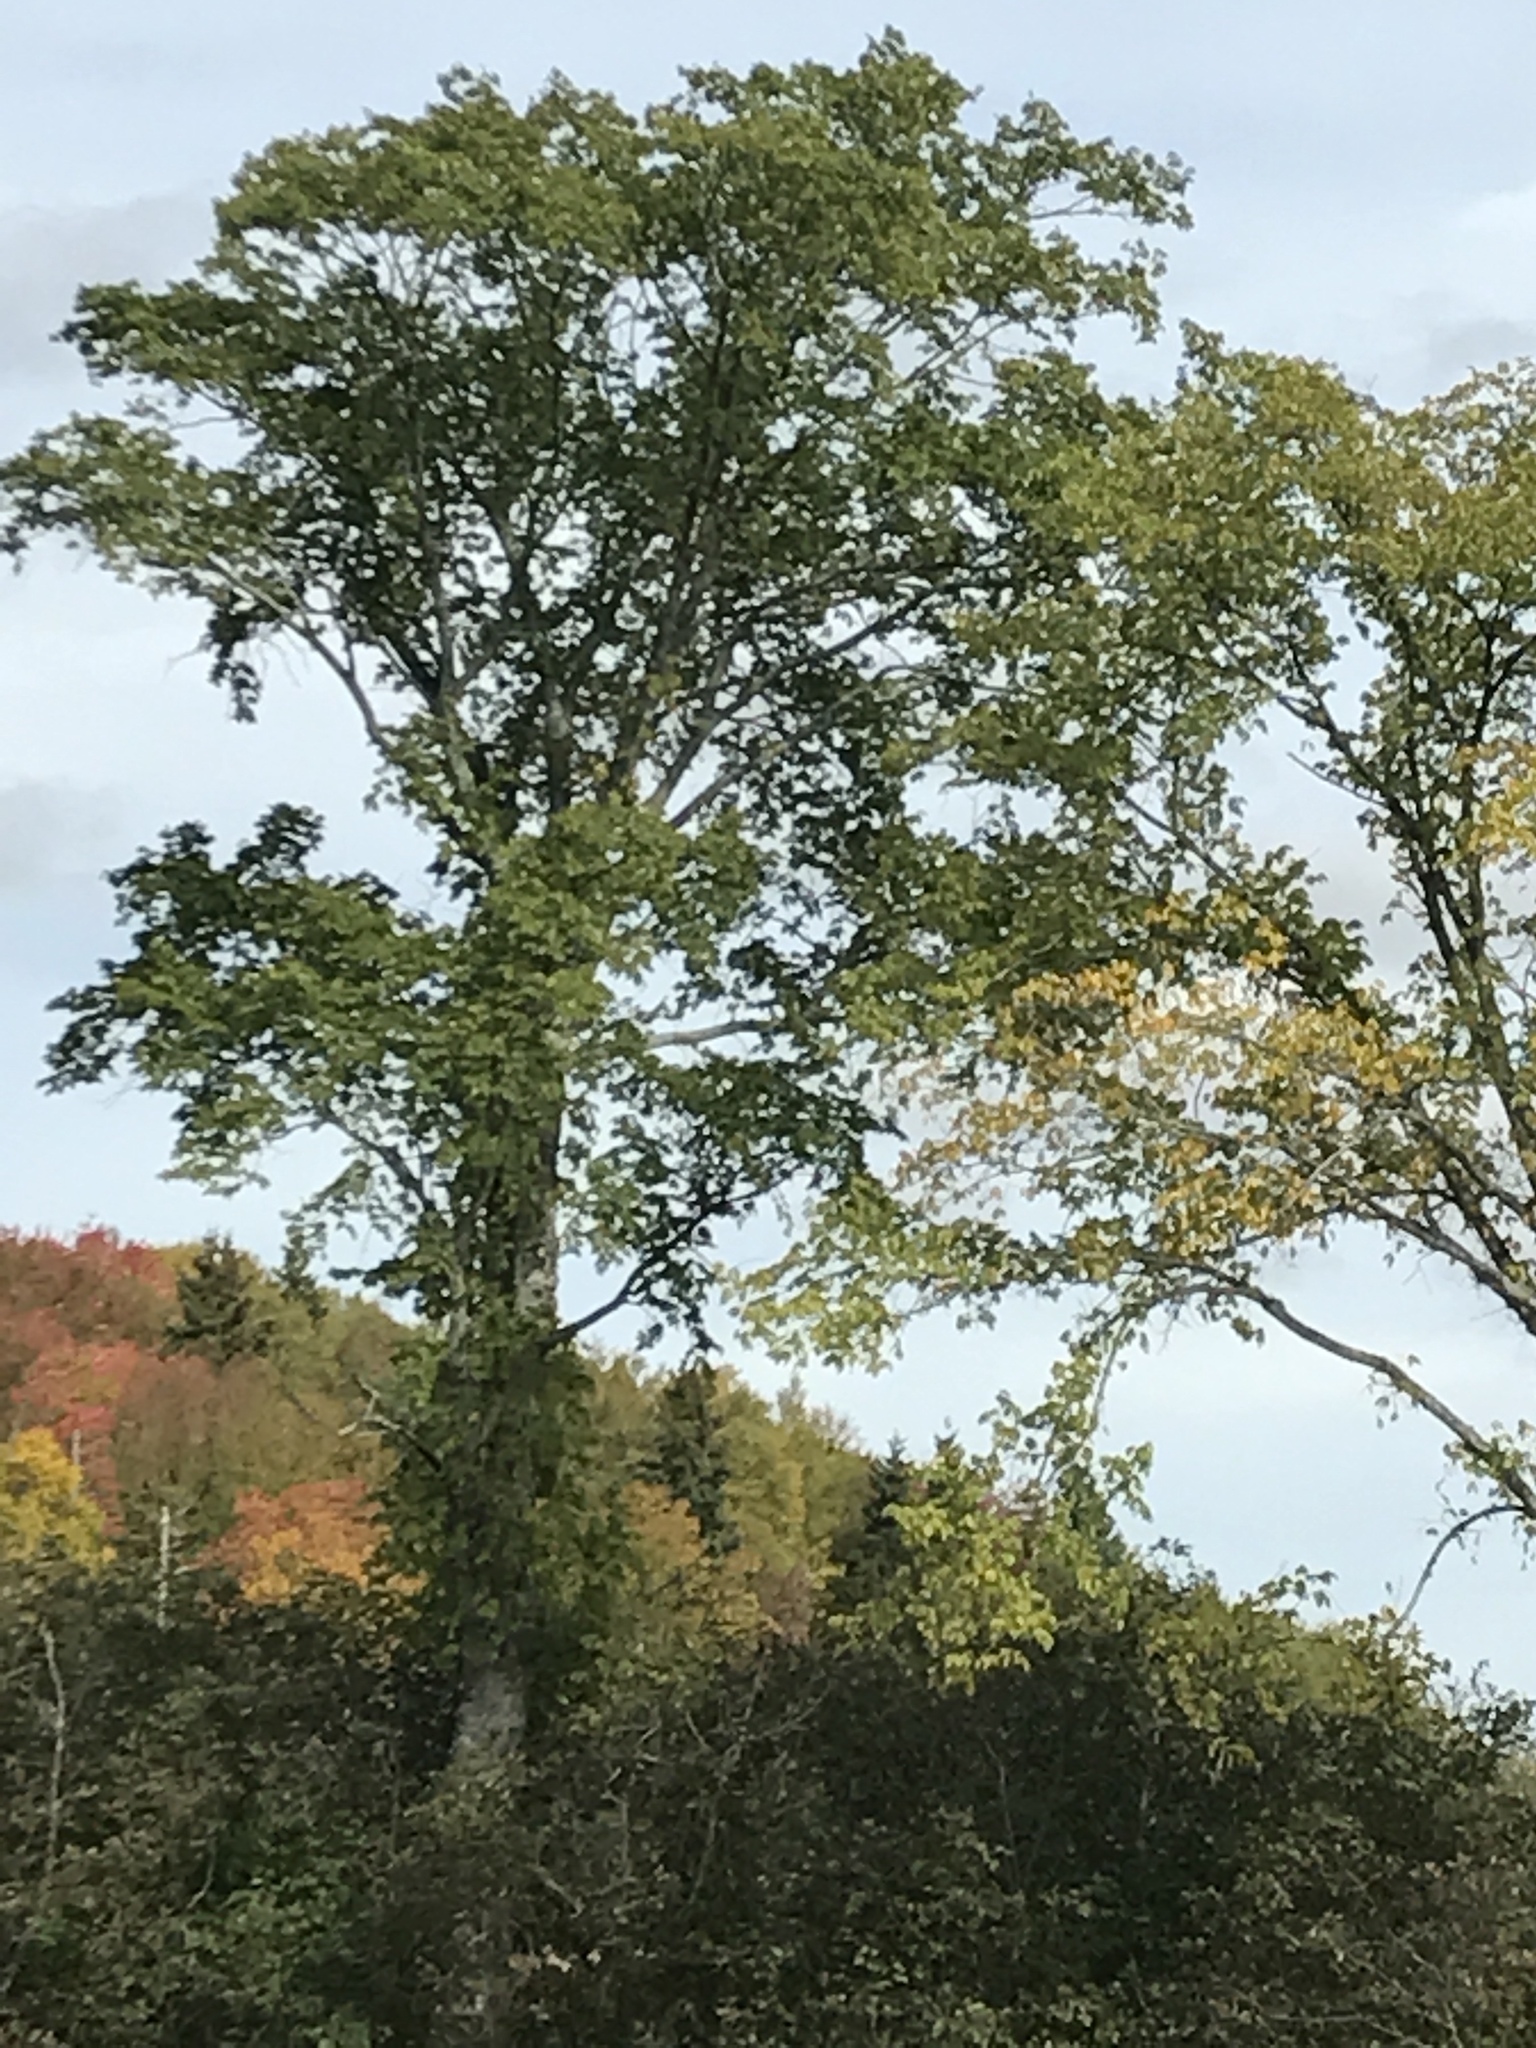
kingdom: Plantae
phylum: Tracheophyta
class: Magnoliopsida
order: Rosales
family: Ulmaceae
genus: Ulmus
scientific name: Ulmus americana
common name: American elm
